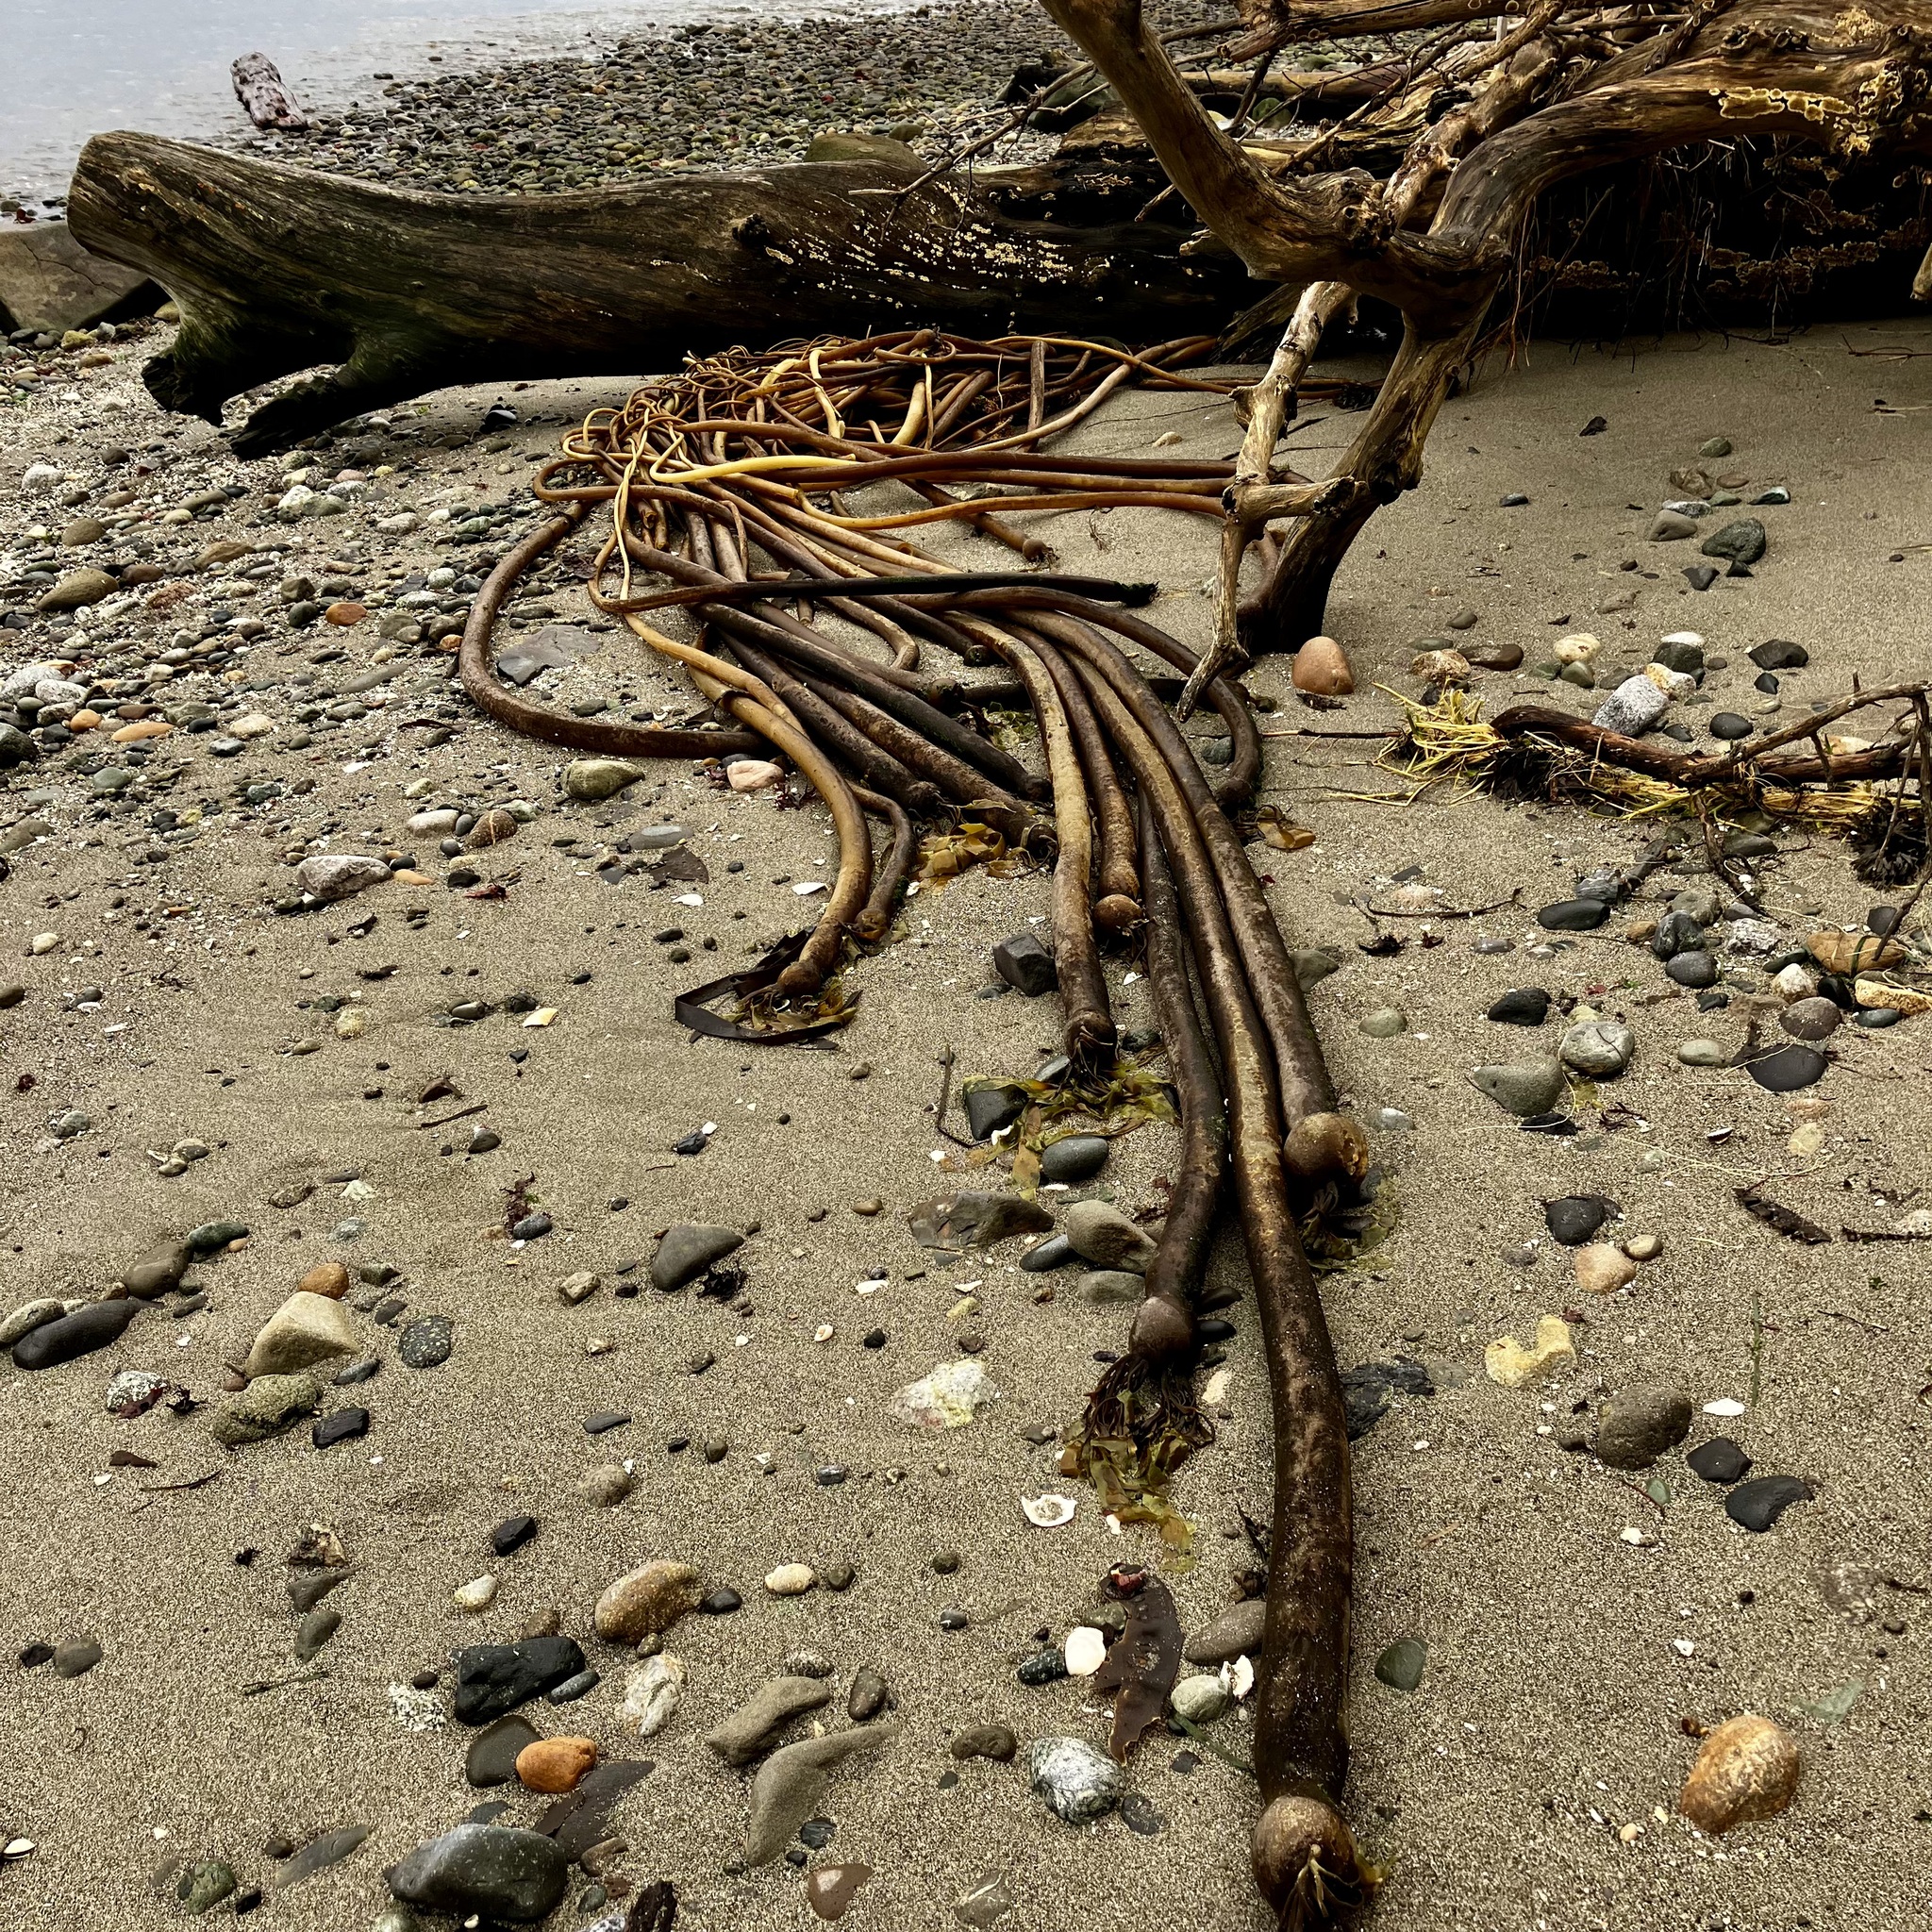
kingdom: Chromista
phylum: Ochrophyta
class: Phaeophyceae
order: Laminariales
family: Laminariaceae
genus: Nereocystis
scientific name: Nereocystis luetkeana
